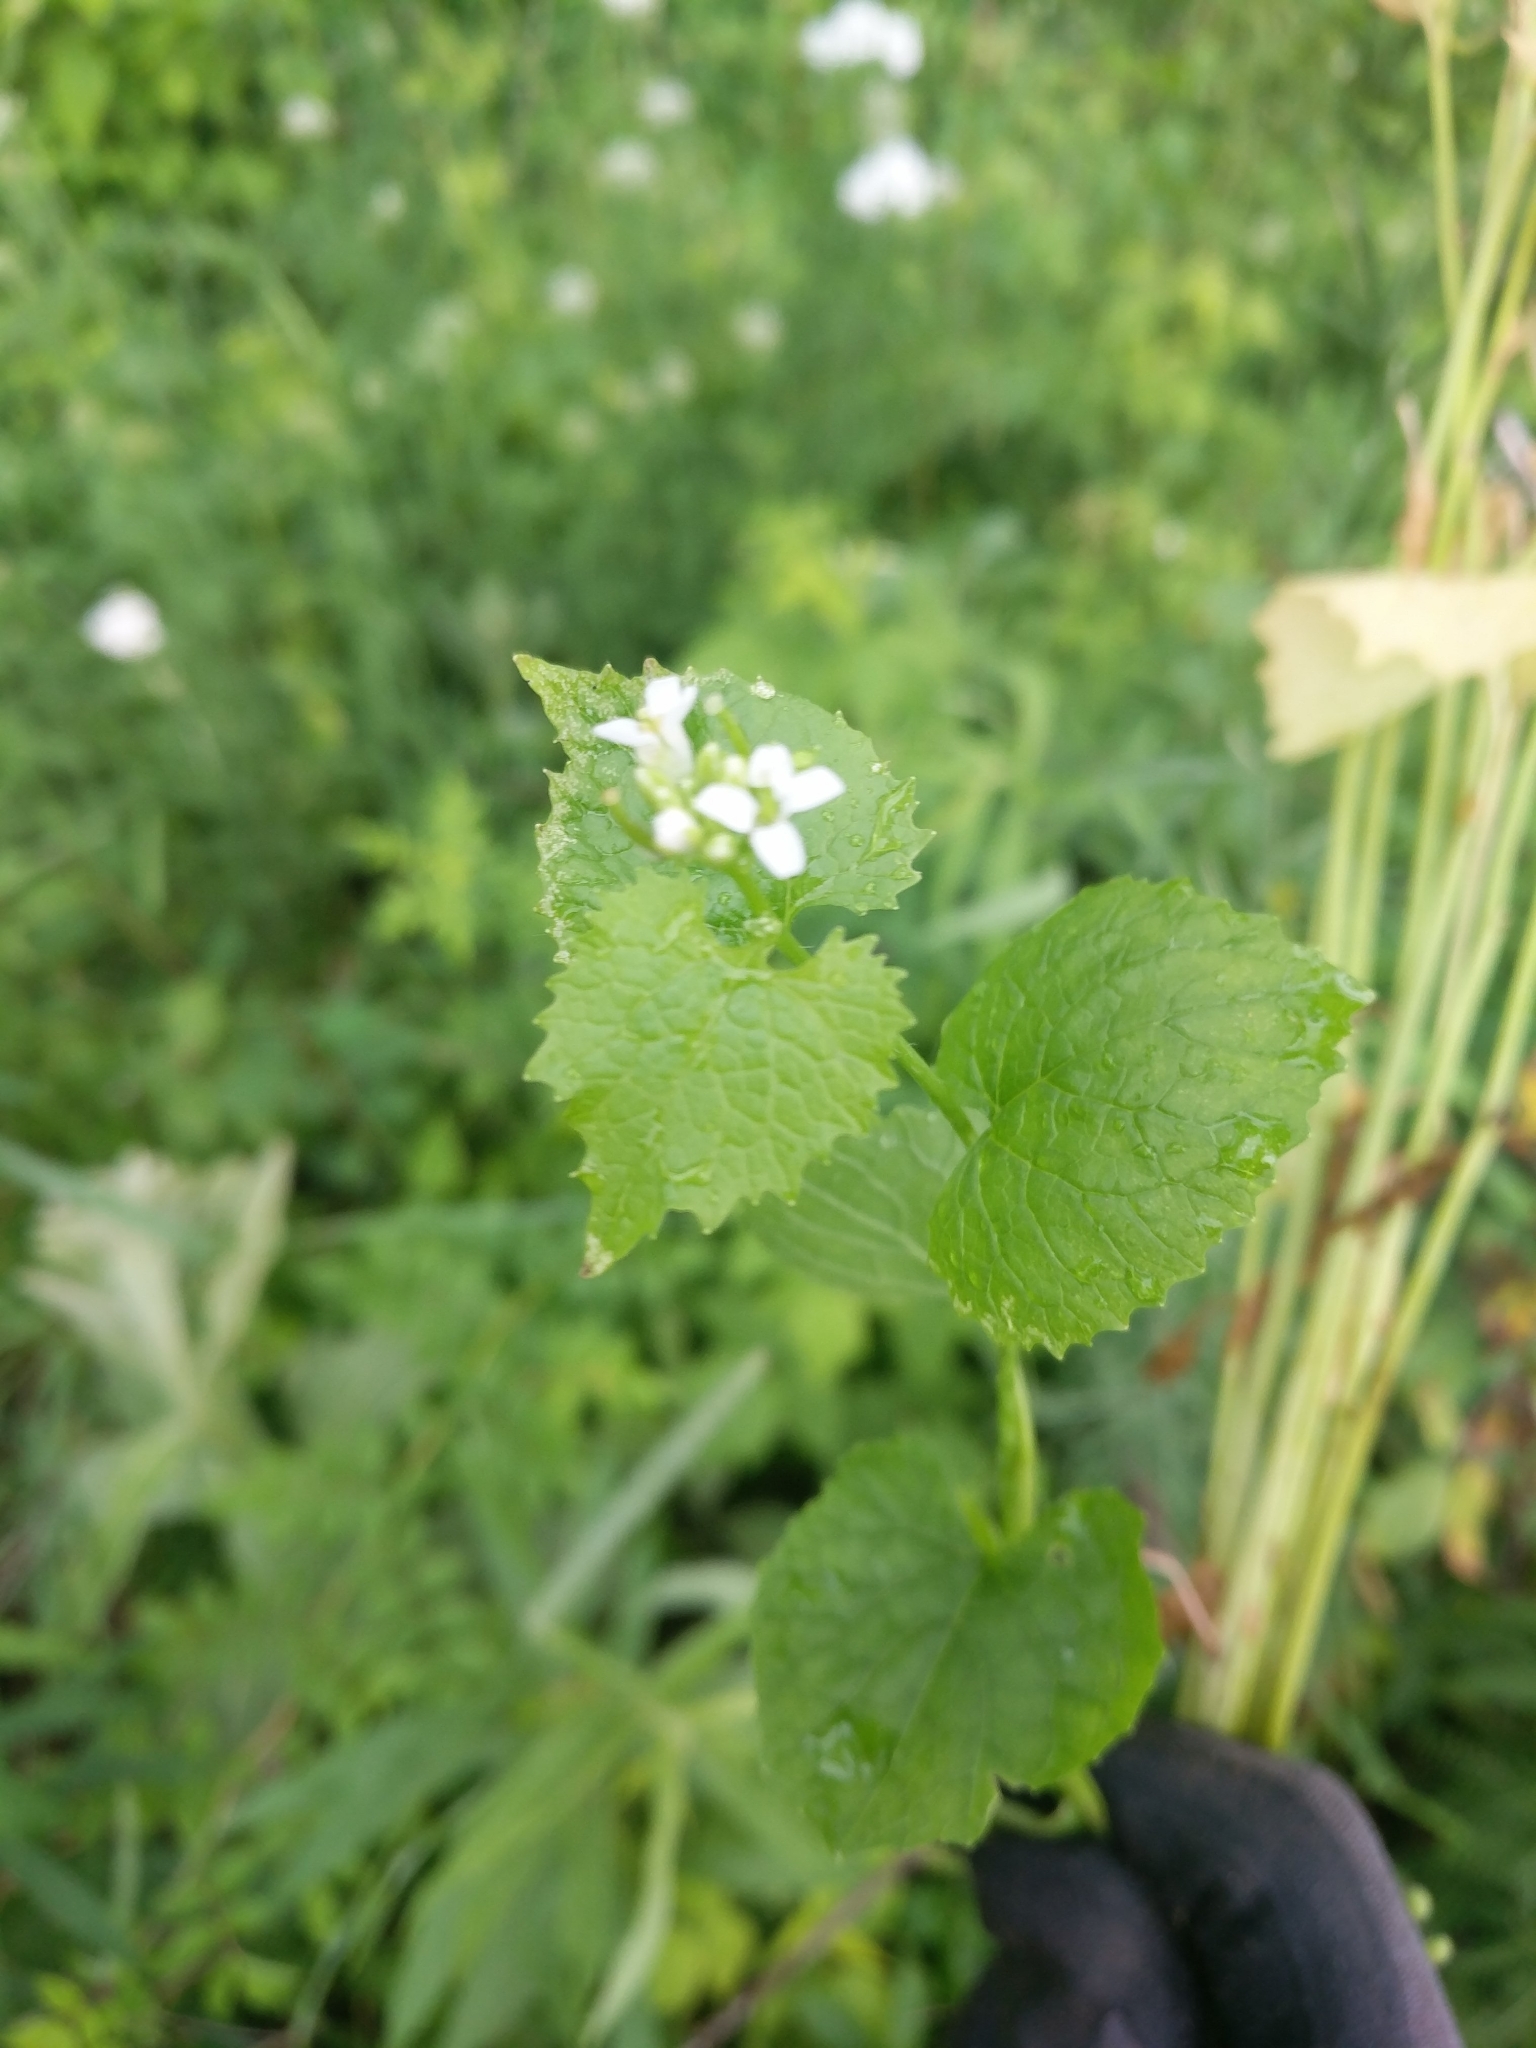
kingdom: Plantae
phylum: Tracheophyta
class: Magnoliopsida
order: Brassicales
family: Brassicaceae
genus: Alliaria
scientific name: Alliaria petiolata
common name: Garlic mustard
